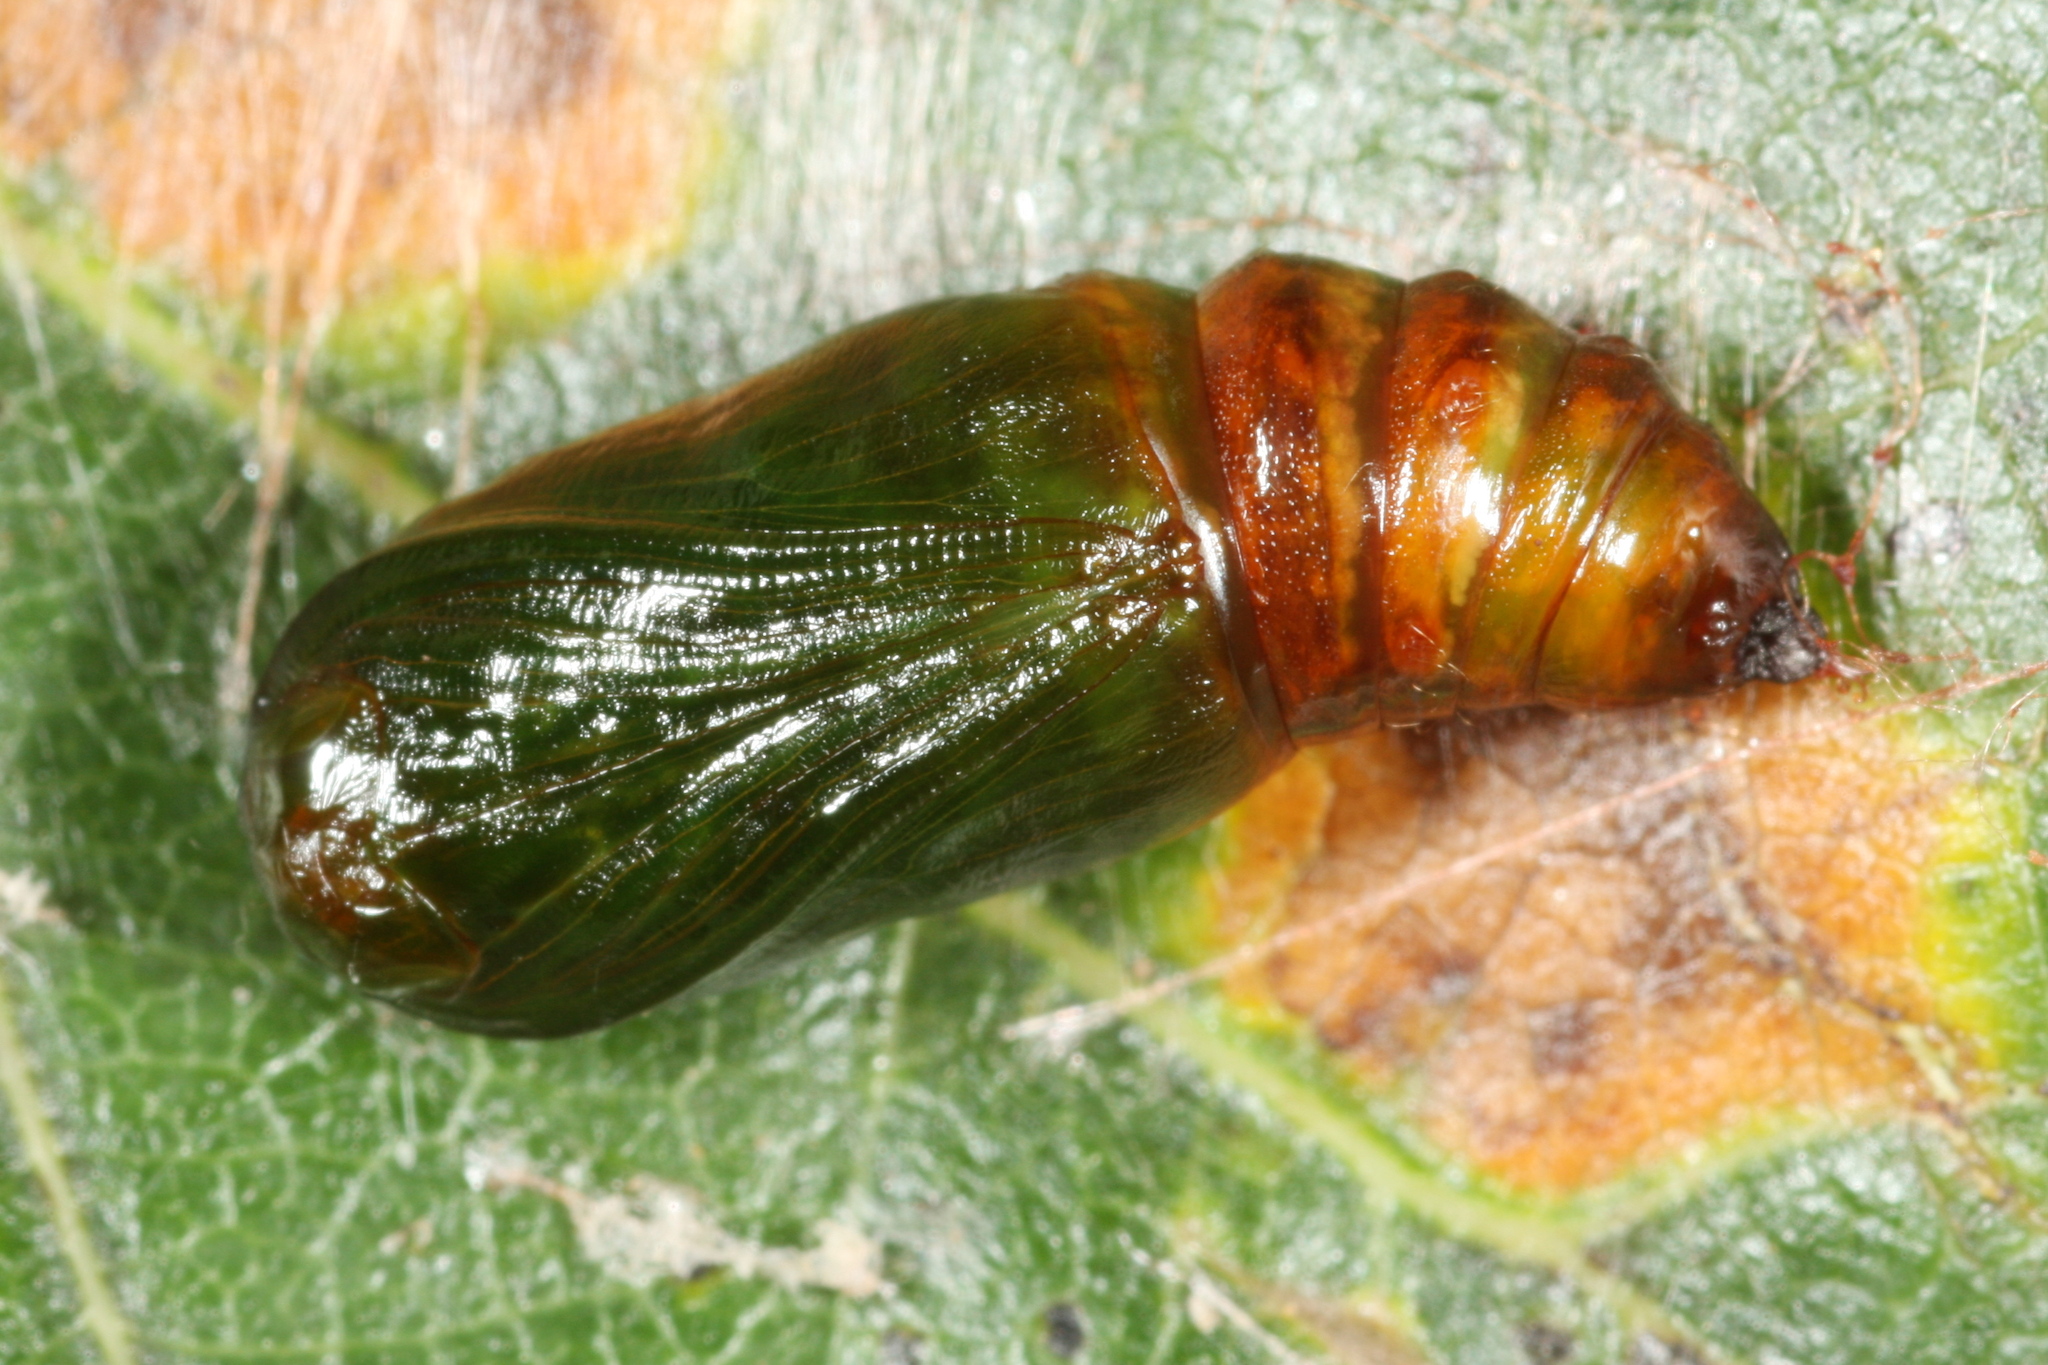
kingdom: Animalia
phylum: Arthropoda
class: Insecta
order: Lepidoptera
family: Geometridae
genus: Selenia
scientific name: Selenia tetralunaria
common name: Purple thorn
